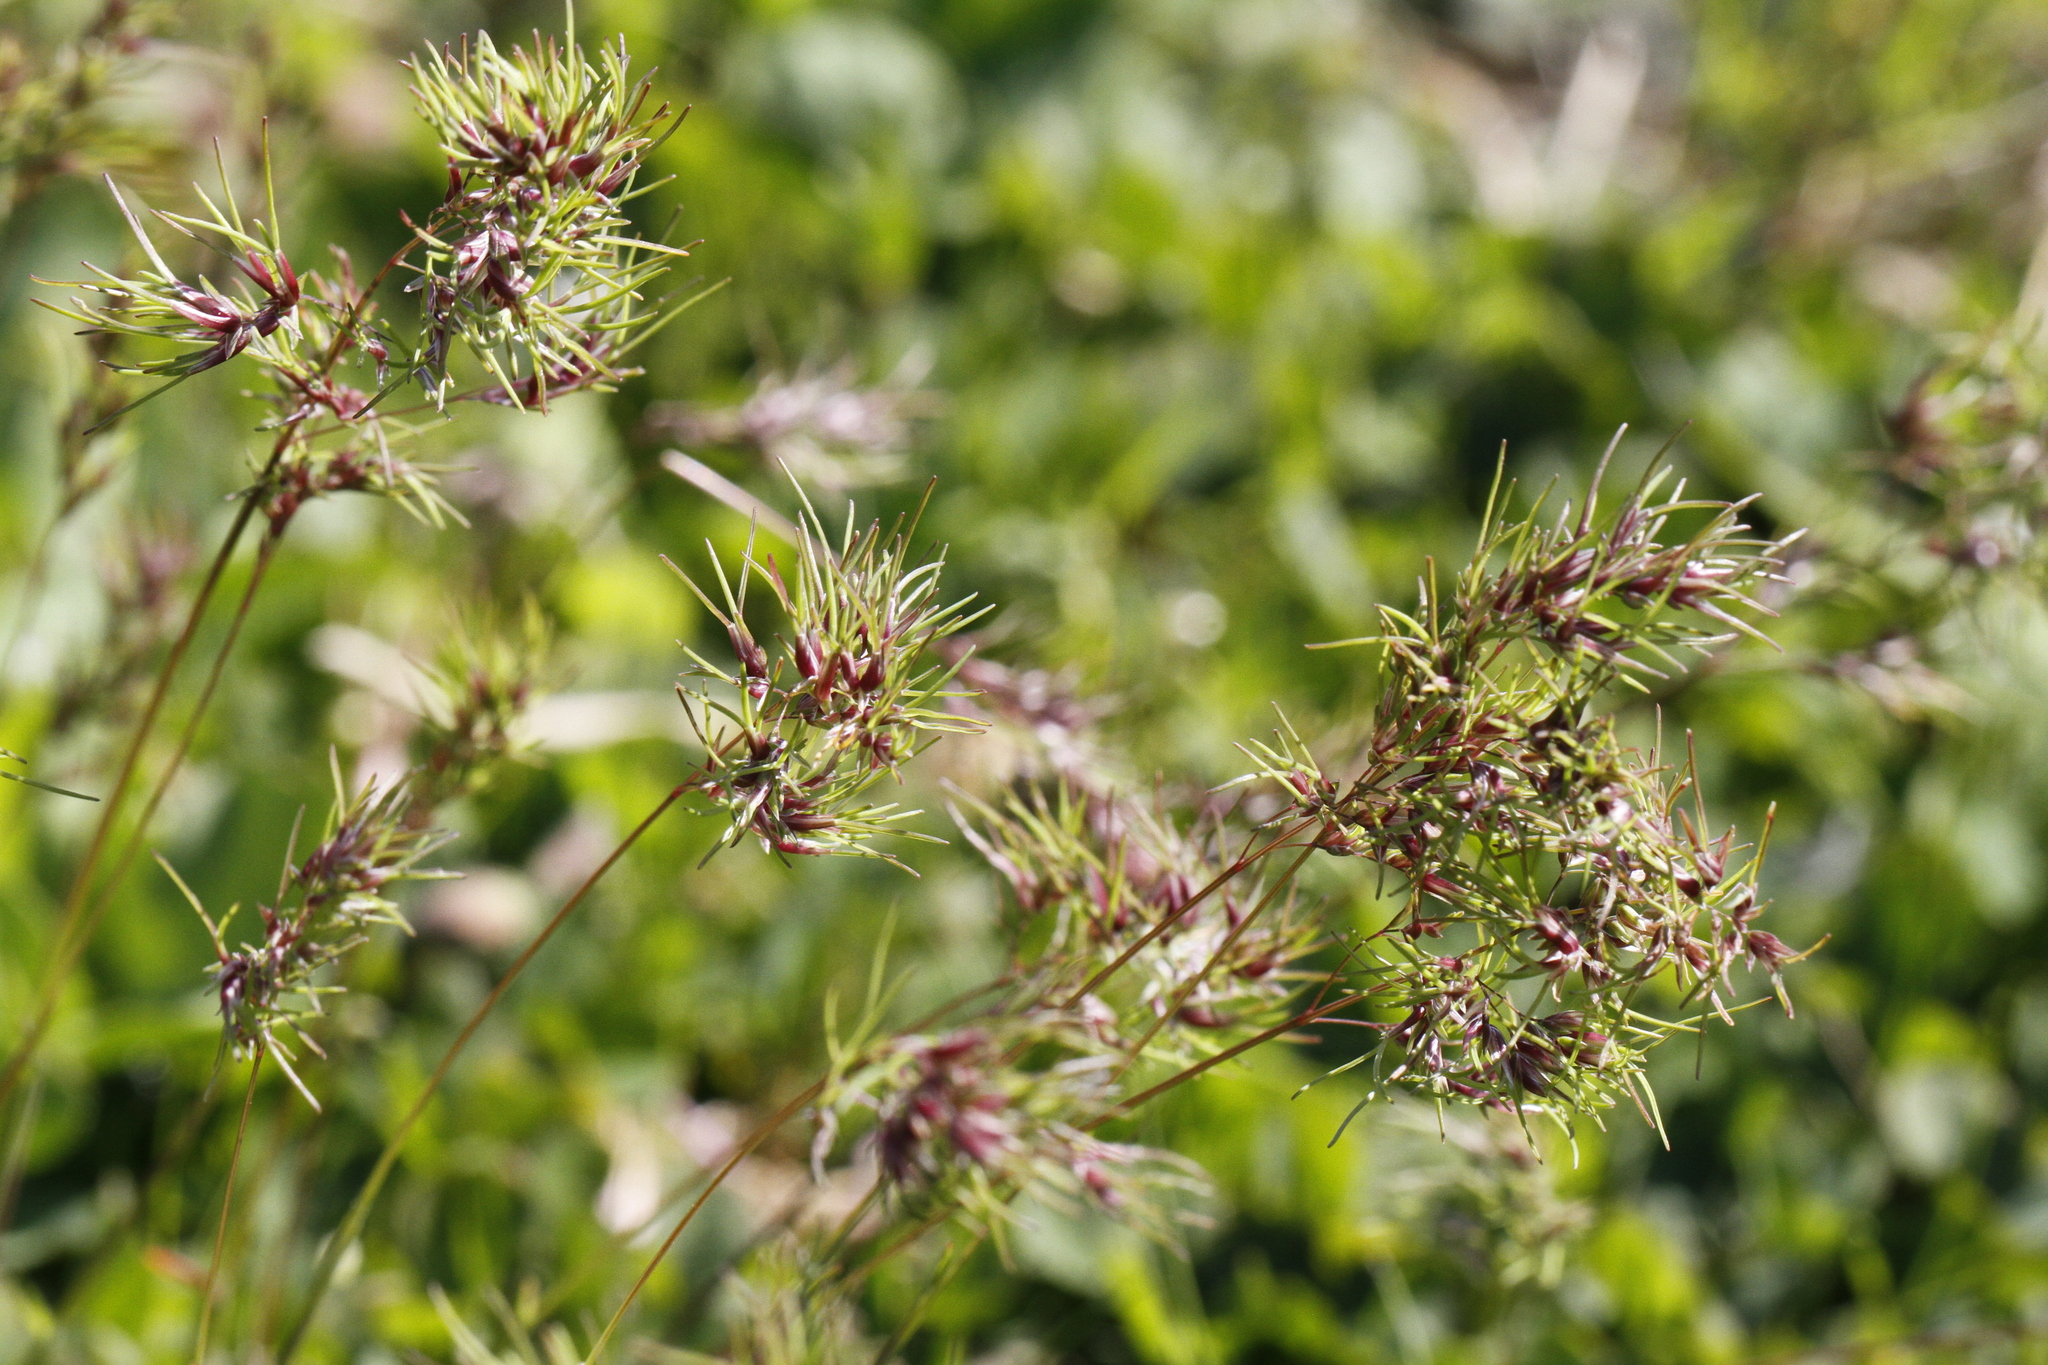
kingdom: Plantae
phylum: Tracheophyta
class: Liliopsida
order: Poales
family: Poaceae
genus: Poa
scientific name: Poa bulbosa
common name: Bulbous bluegrass
